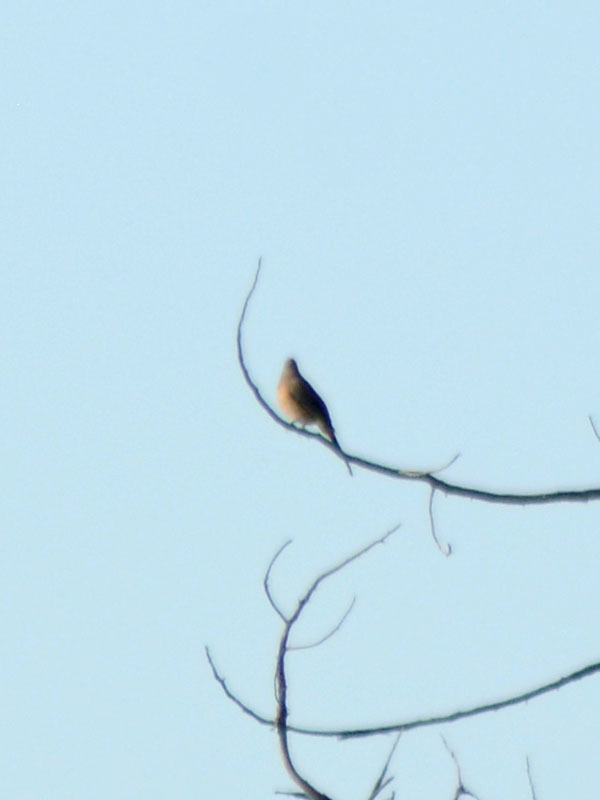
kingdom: Animalia
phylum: Chordata
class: Aves
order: Passeriformes
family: Ptilogonatidae
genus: Ptilogonys
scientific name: Ptilogonys cinereus
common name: Gray silky-flycatcher
